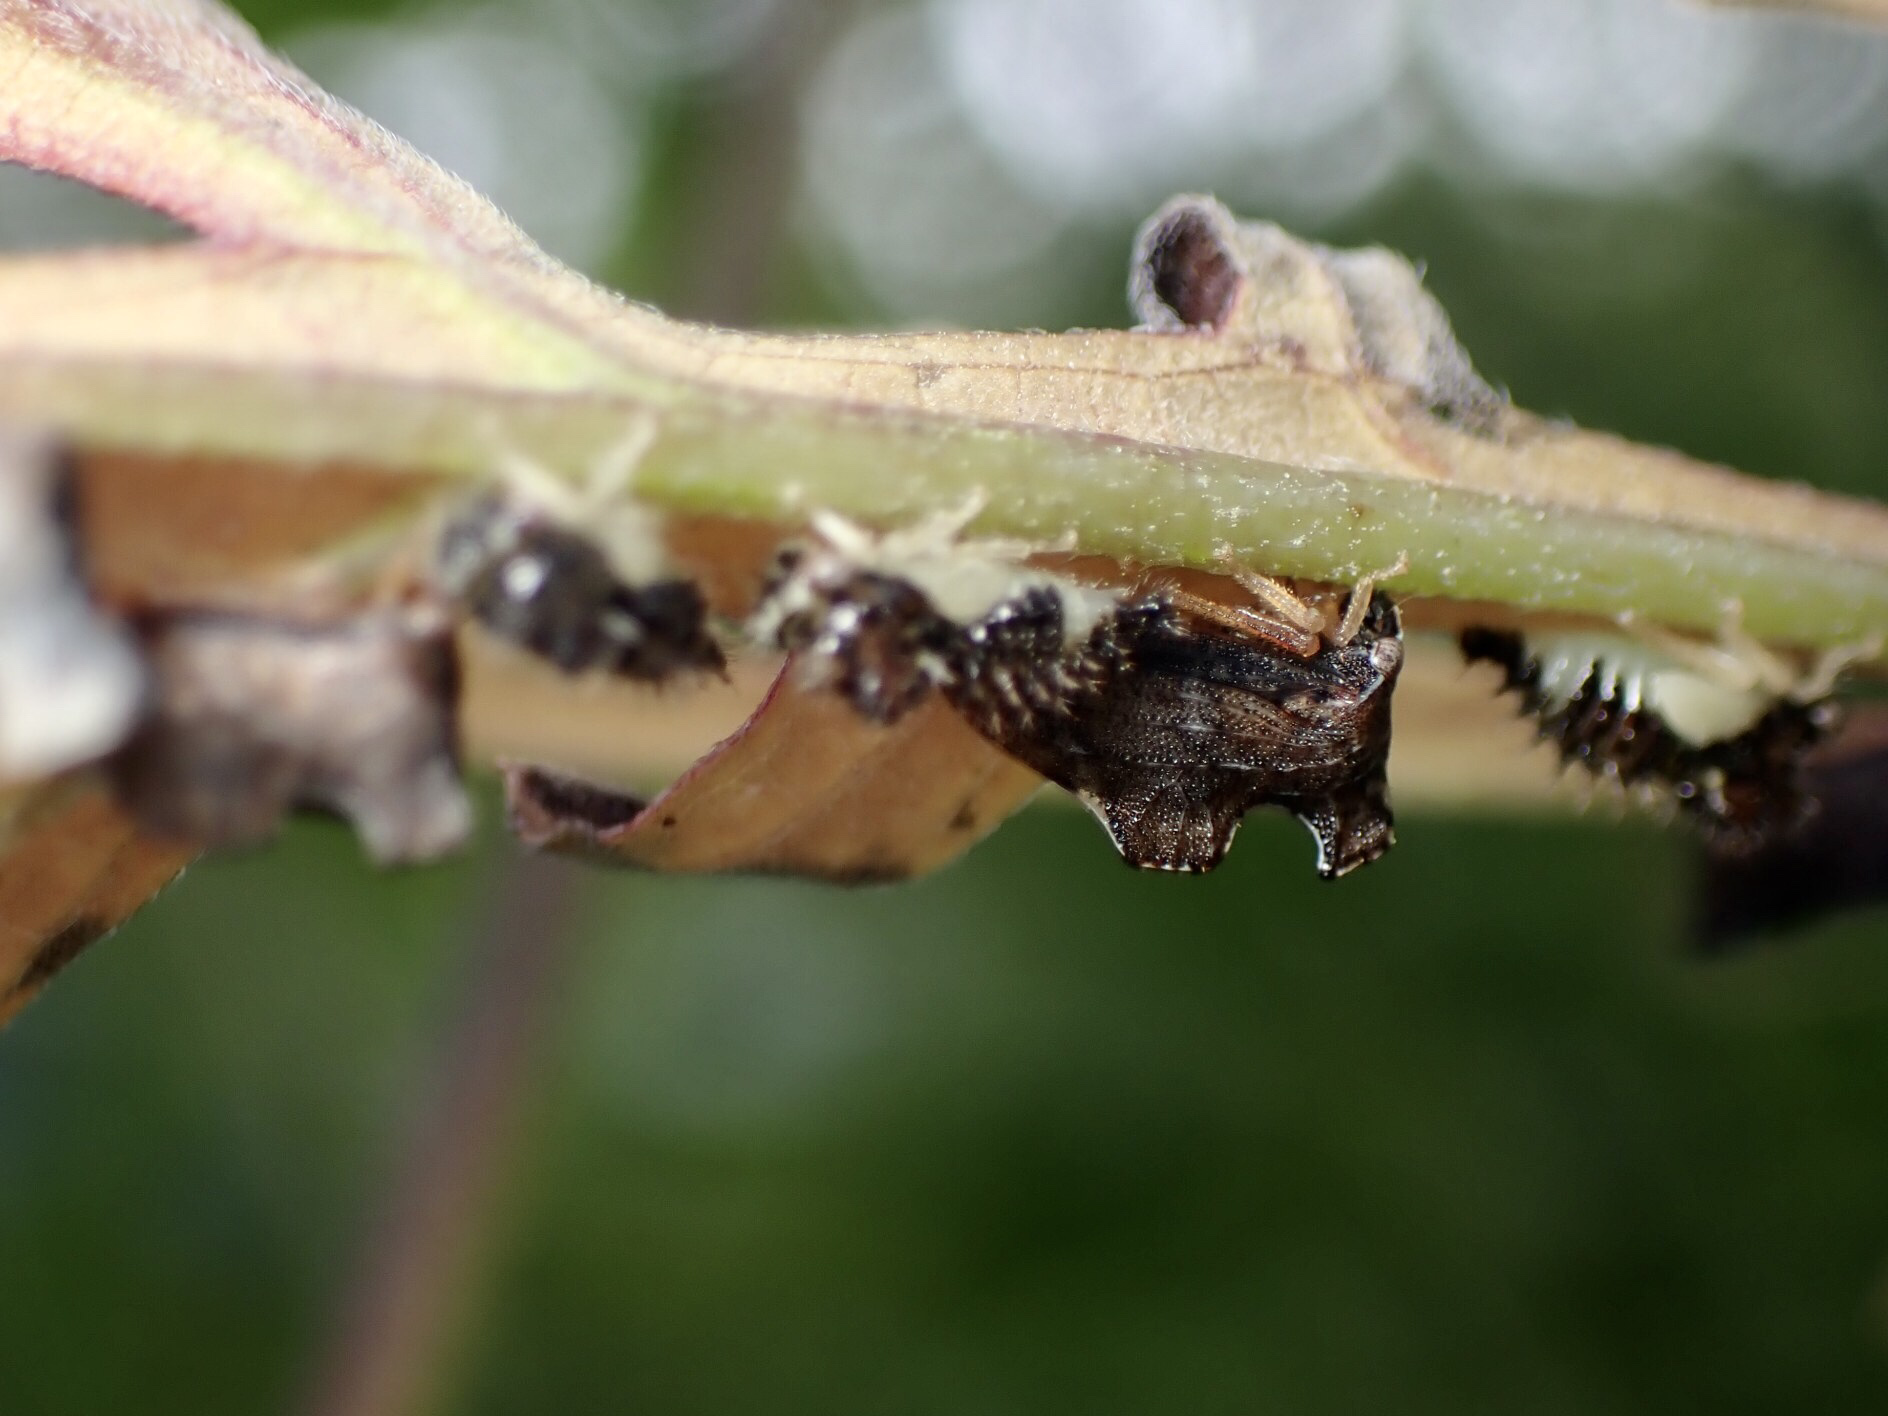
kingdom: Animalia
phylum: Arthropoda
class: Insecta
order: Hemiptera
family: Membracidae
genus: Entylia
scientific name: Entylia carinata
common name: Keeled treehopper
